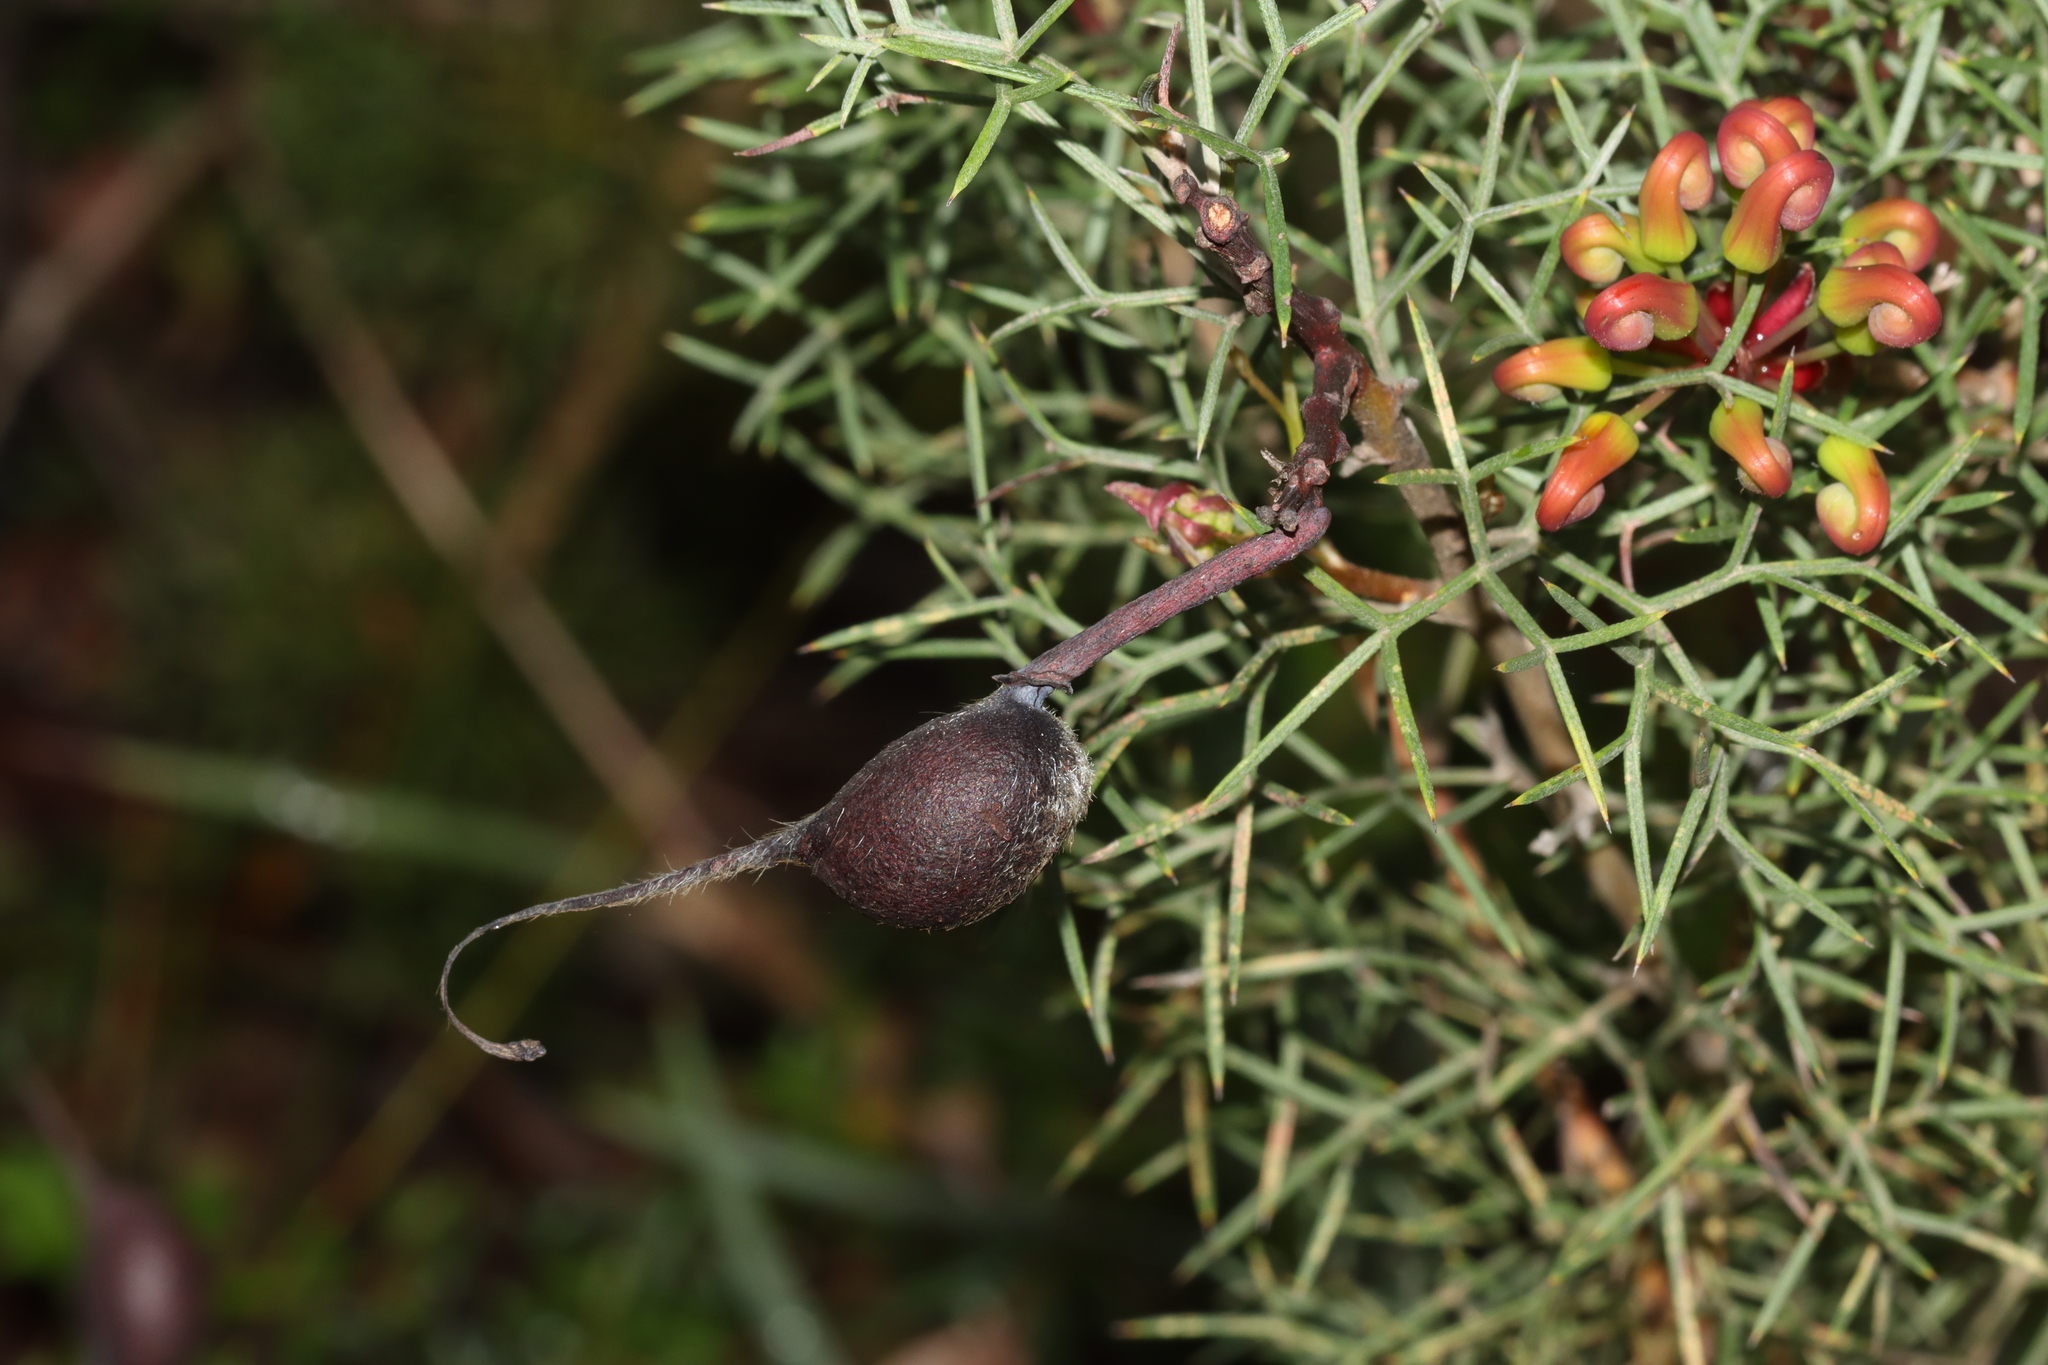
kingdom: Plantae
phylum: Tracheophyta
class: Magnoliopsida
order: Proteales
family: Proteaceae
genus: Grevillea
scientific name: Grevillea wilsonii
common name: Fire-wheel
